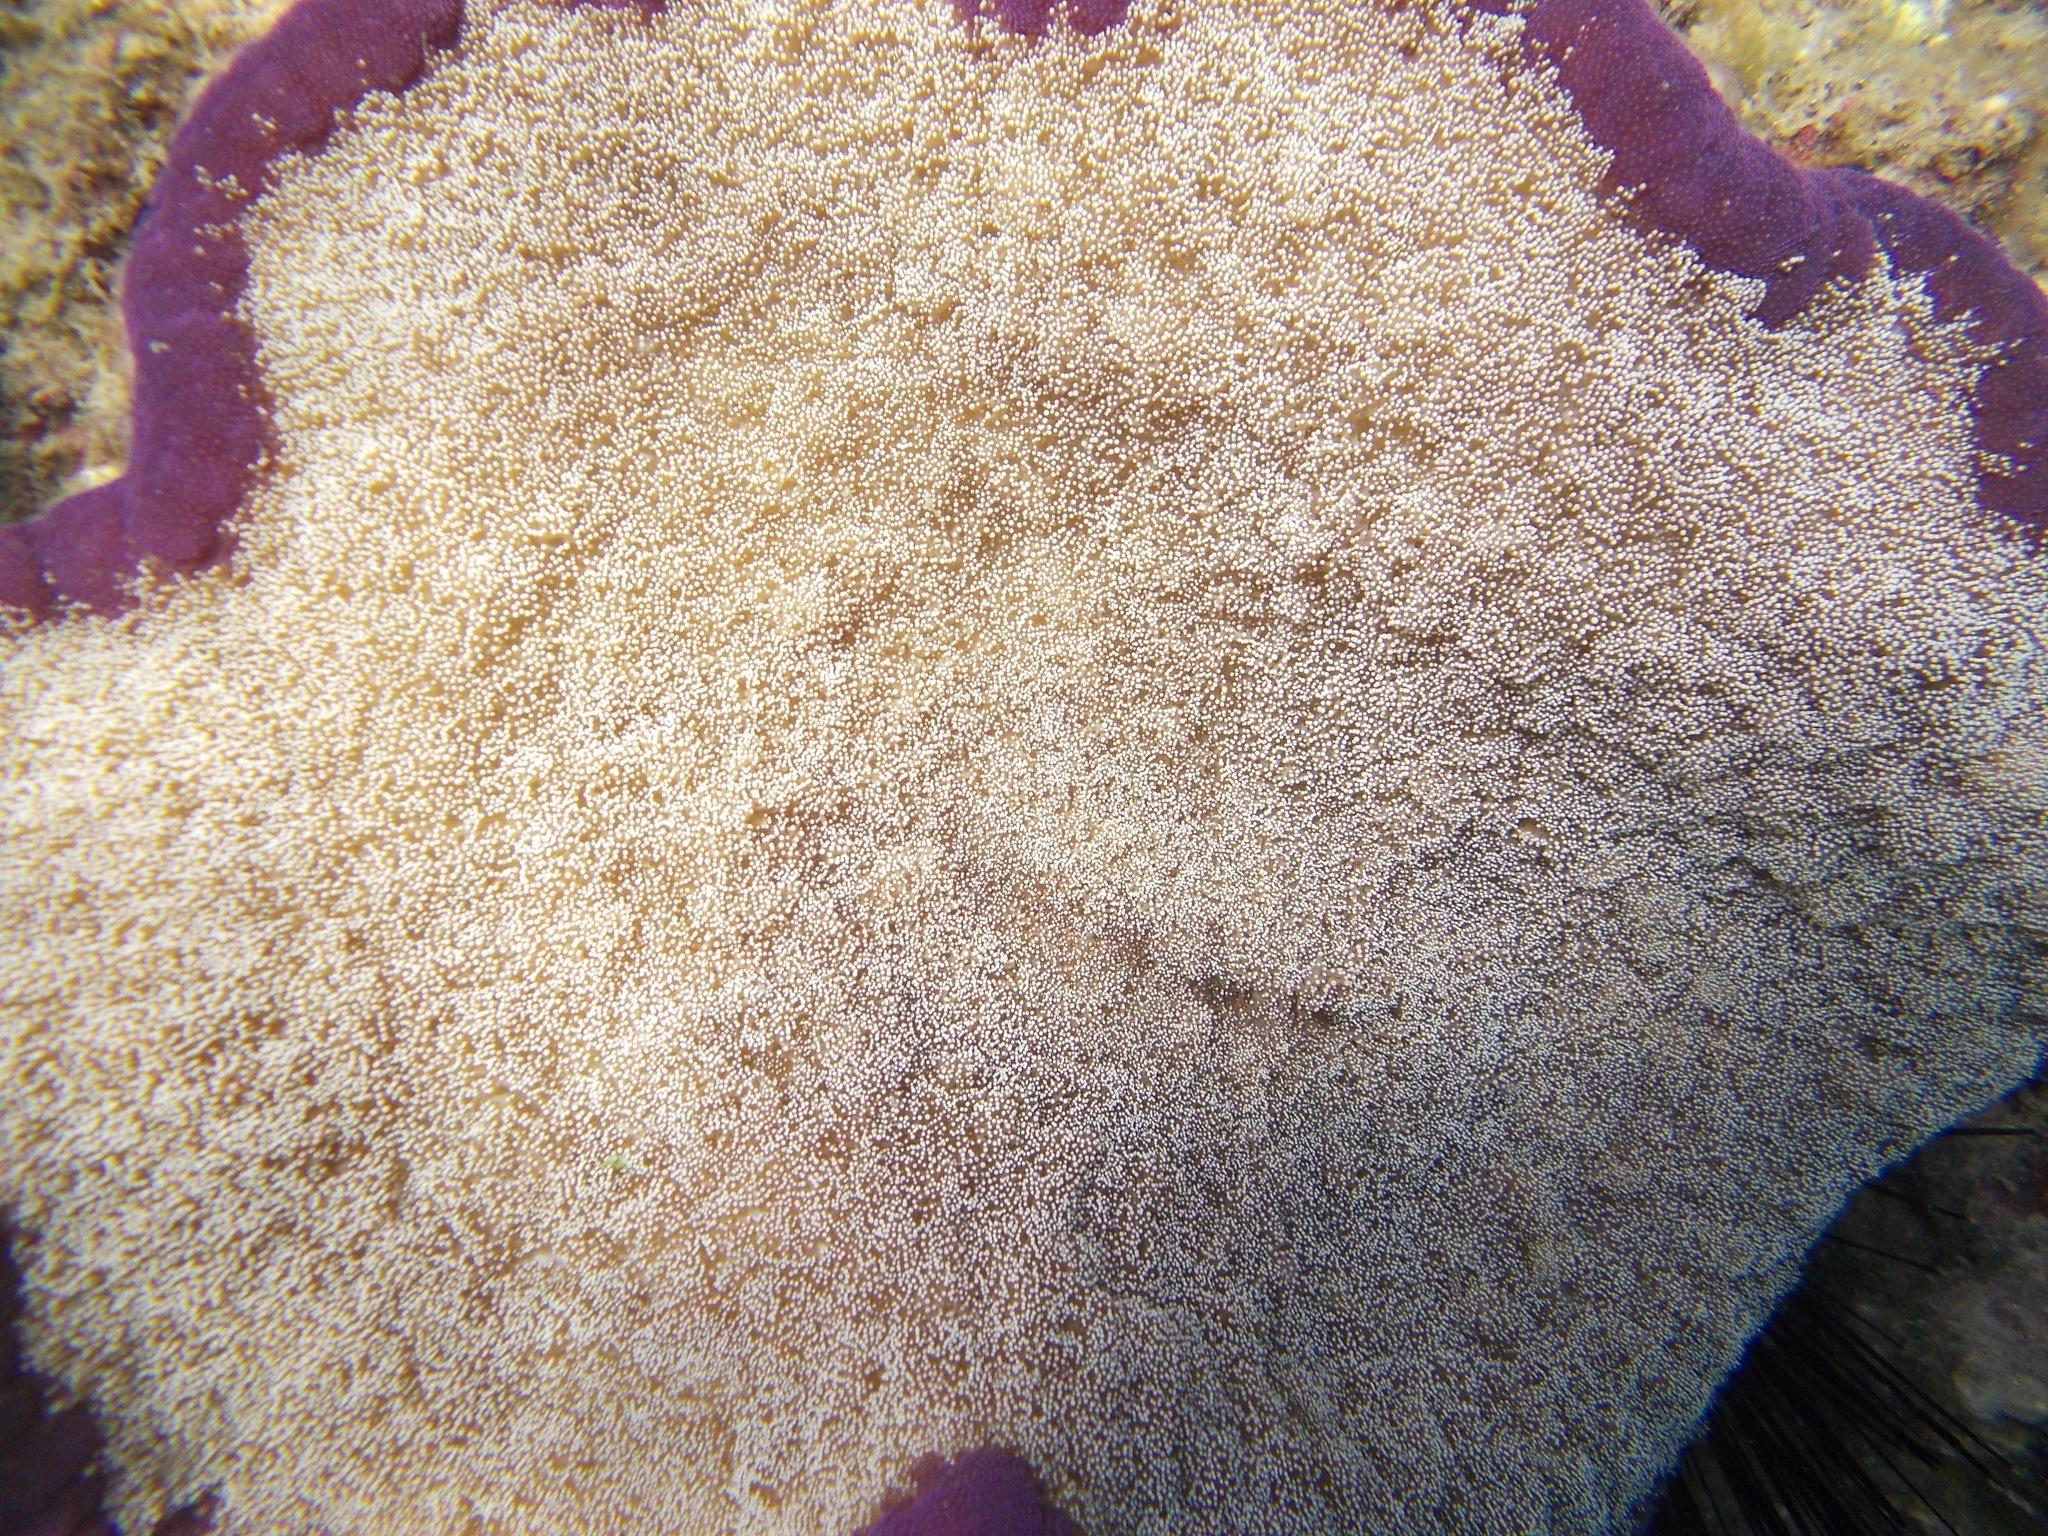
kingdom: Animalia
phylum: Cnidaria
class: Anthozoa
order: Actiniaria
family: Thalassianthidae
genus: Cryptodendrum
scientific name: Cryptodendrum adhaesivum
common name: Adhesive sea anemone
